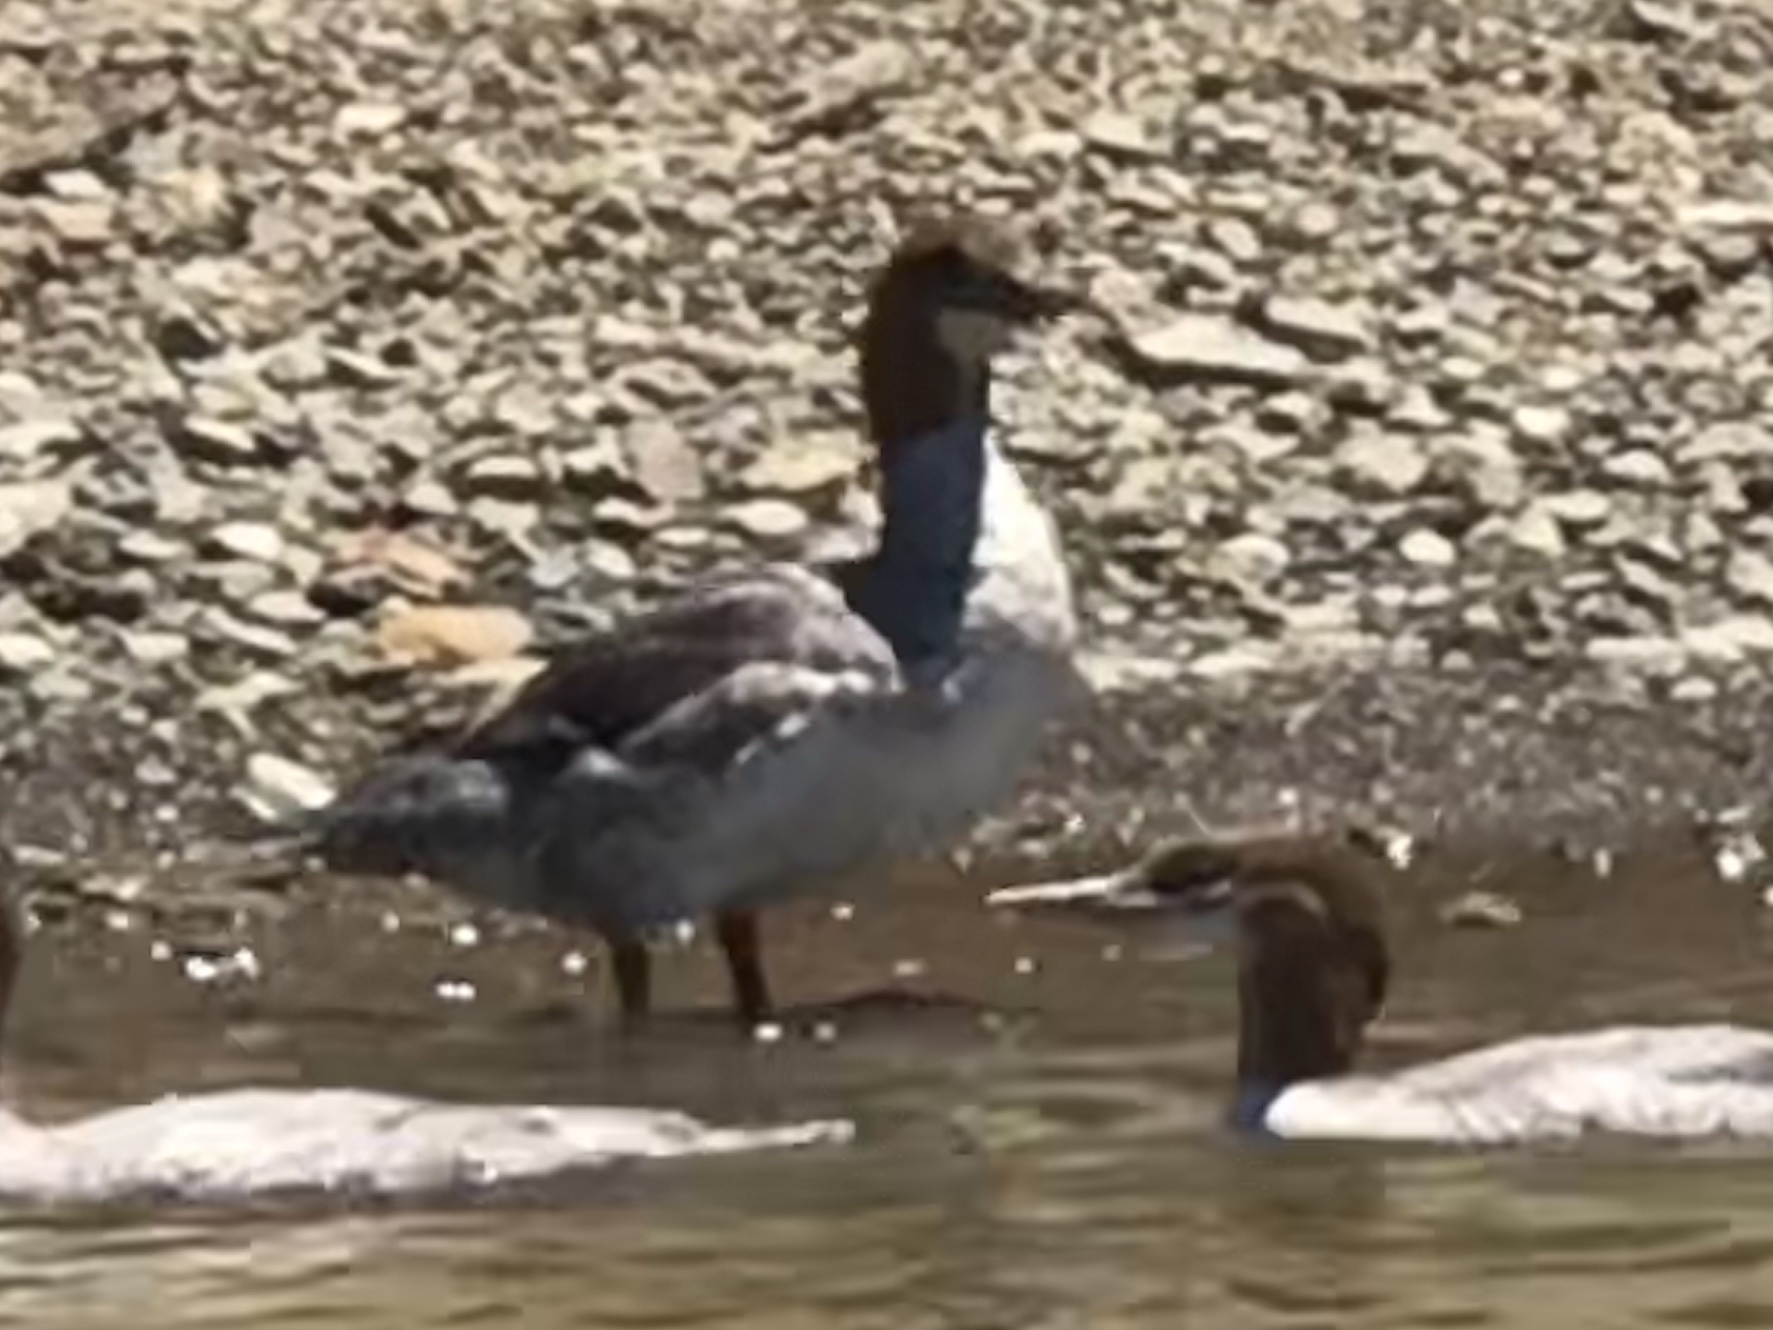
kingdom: Animalia
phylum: Chordata
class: Aves
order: Anseriformes
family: Anatidae
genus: Mergus
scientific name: Mergus merganser
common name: Common merganser
